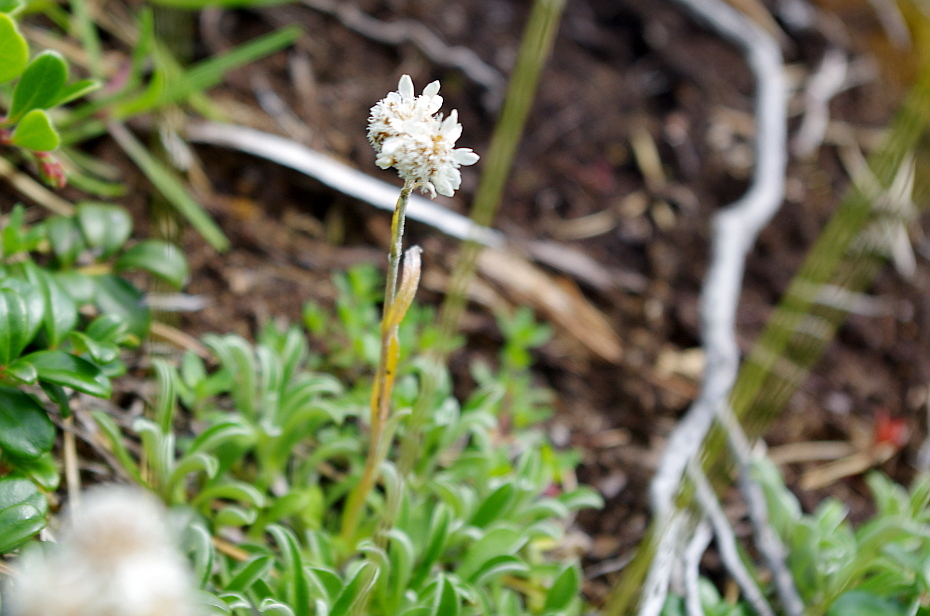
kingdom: Plantae
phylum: Tracheophyta
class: Magnoliopsida
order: Asterales
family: Asteraceae
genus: Antennaria
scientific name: Antennaria dioica
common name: Mountain everlasting
